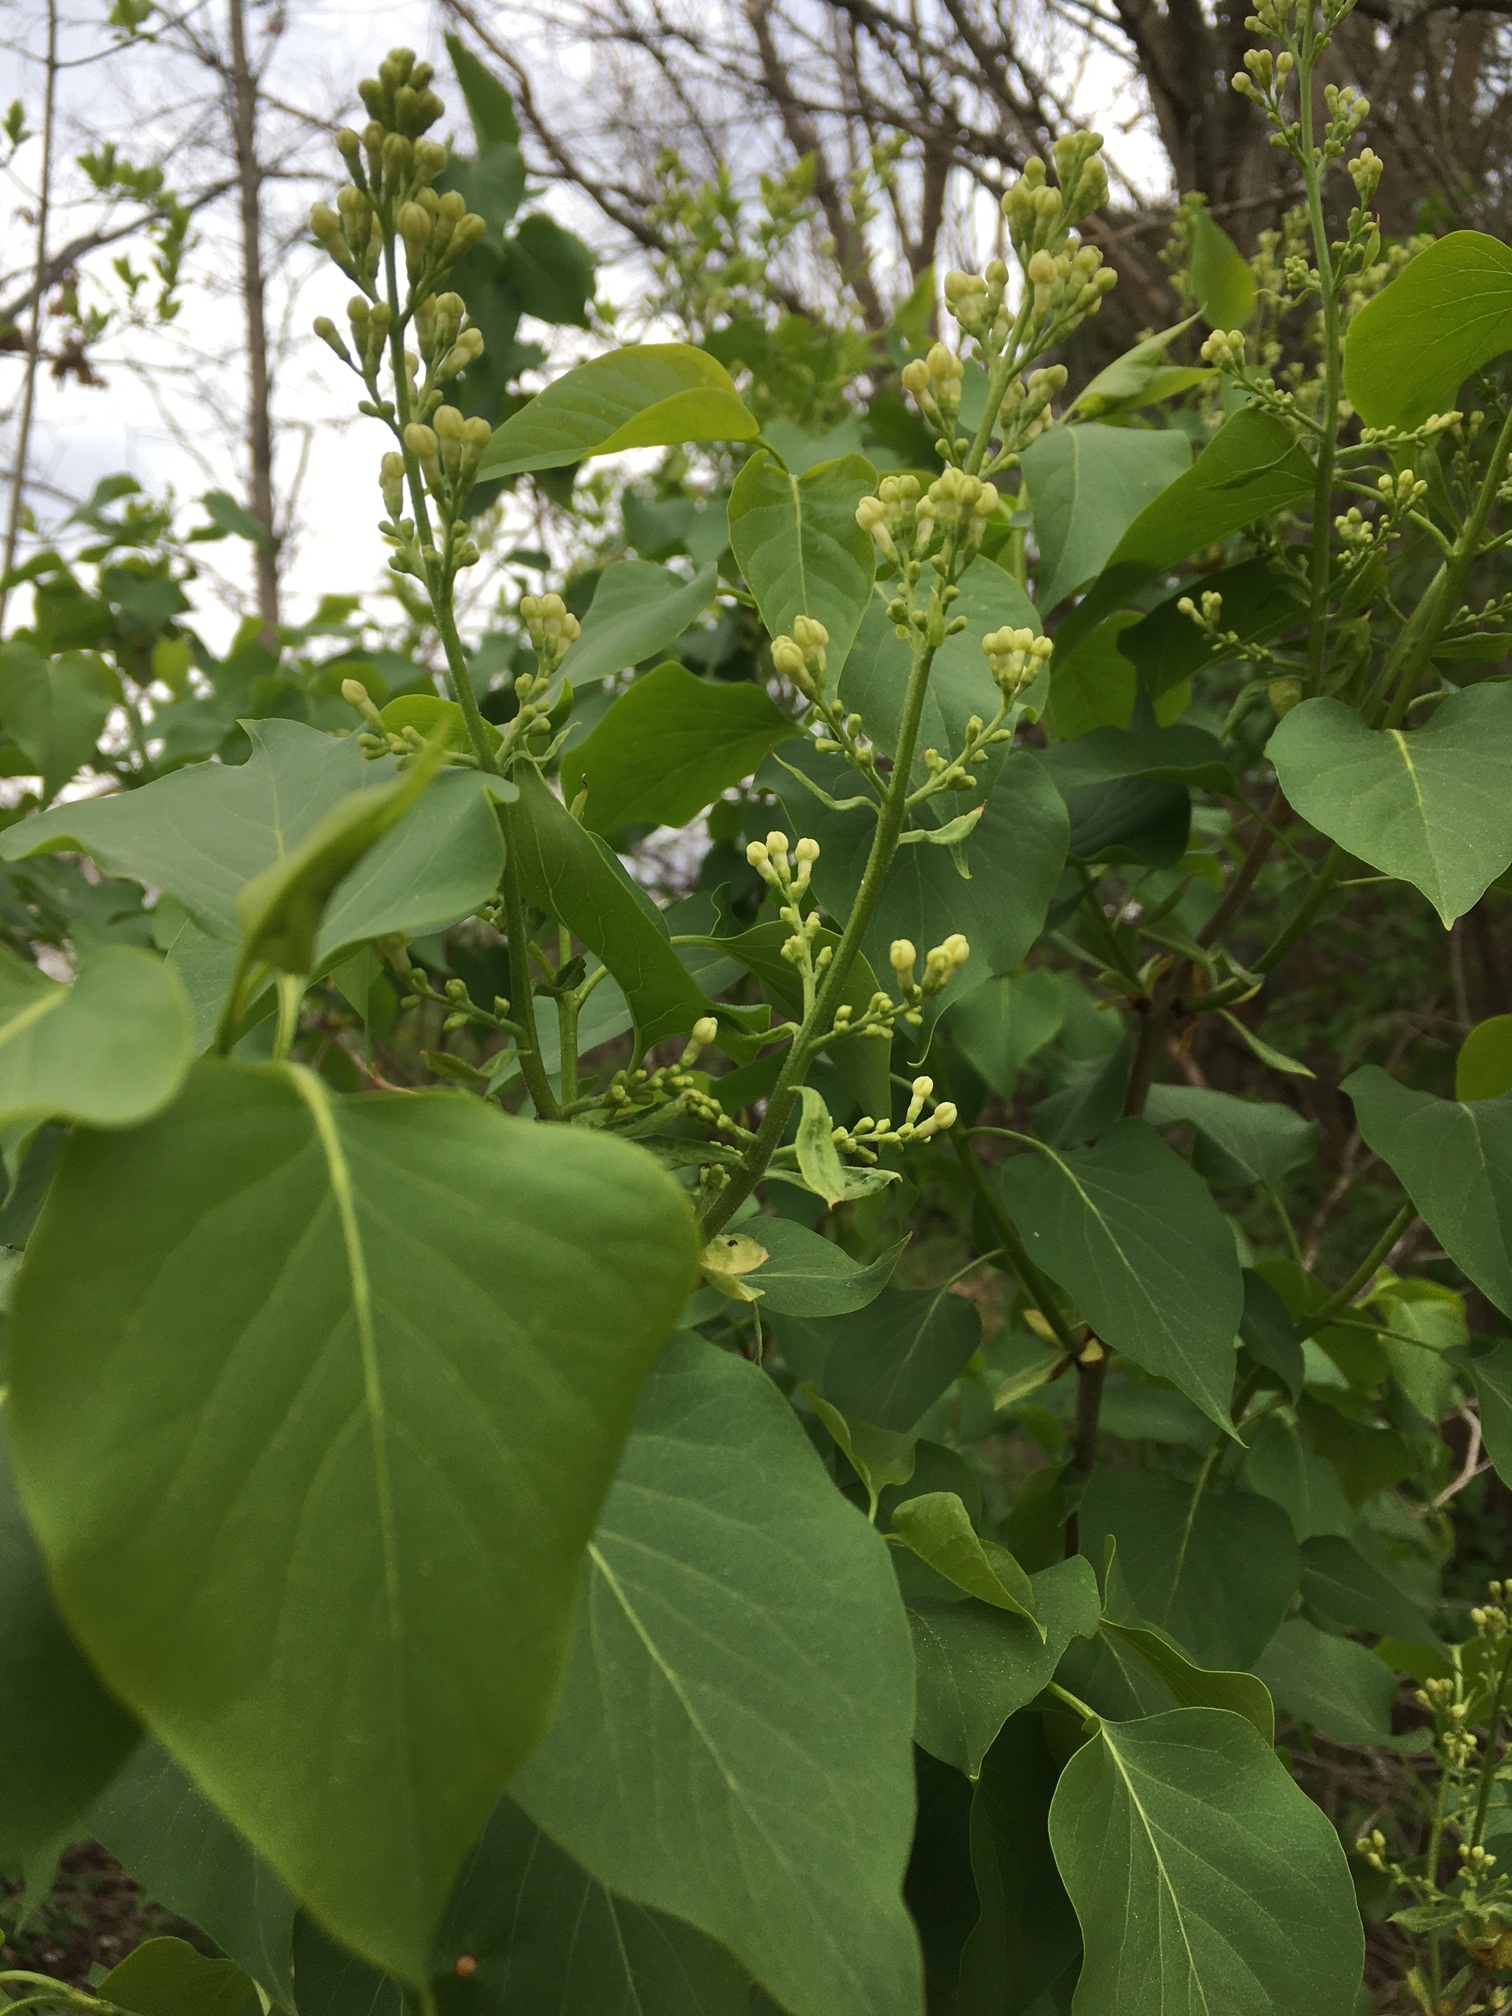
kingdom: Plantae
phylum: Tracheophyta
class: Magnoliopsida
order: Lamiales
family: Oleaceae
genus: Syringa
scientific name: Syringa vulgaris
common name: Common lilac
